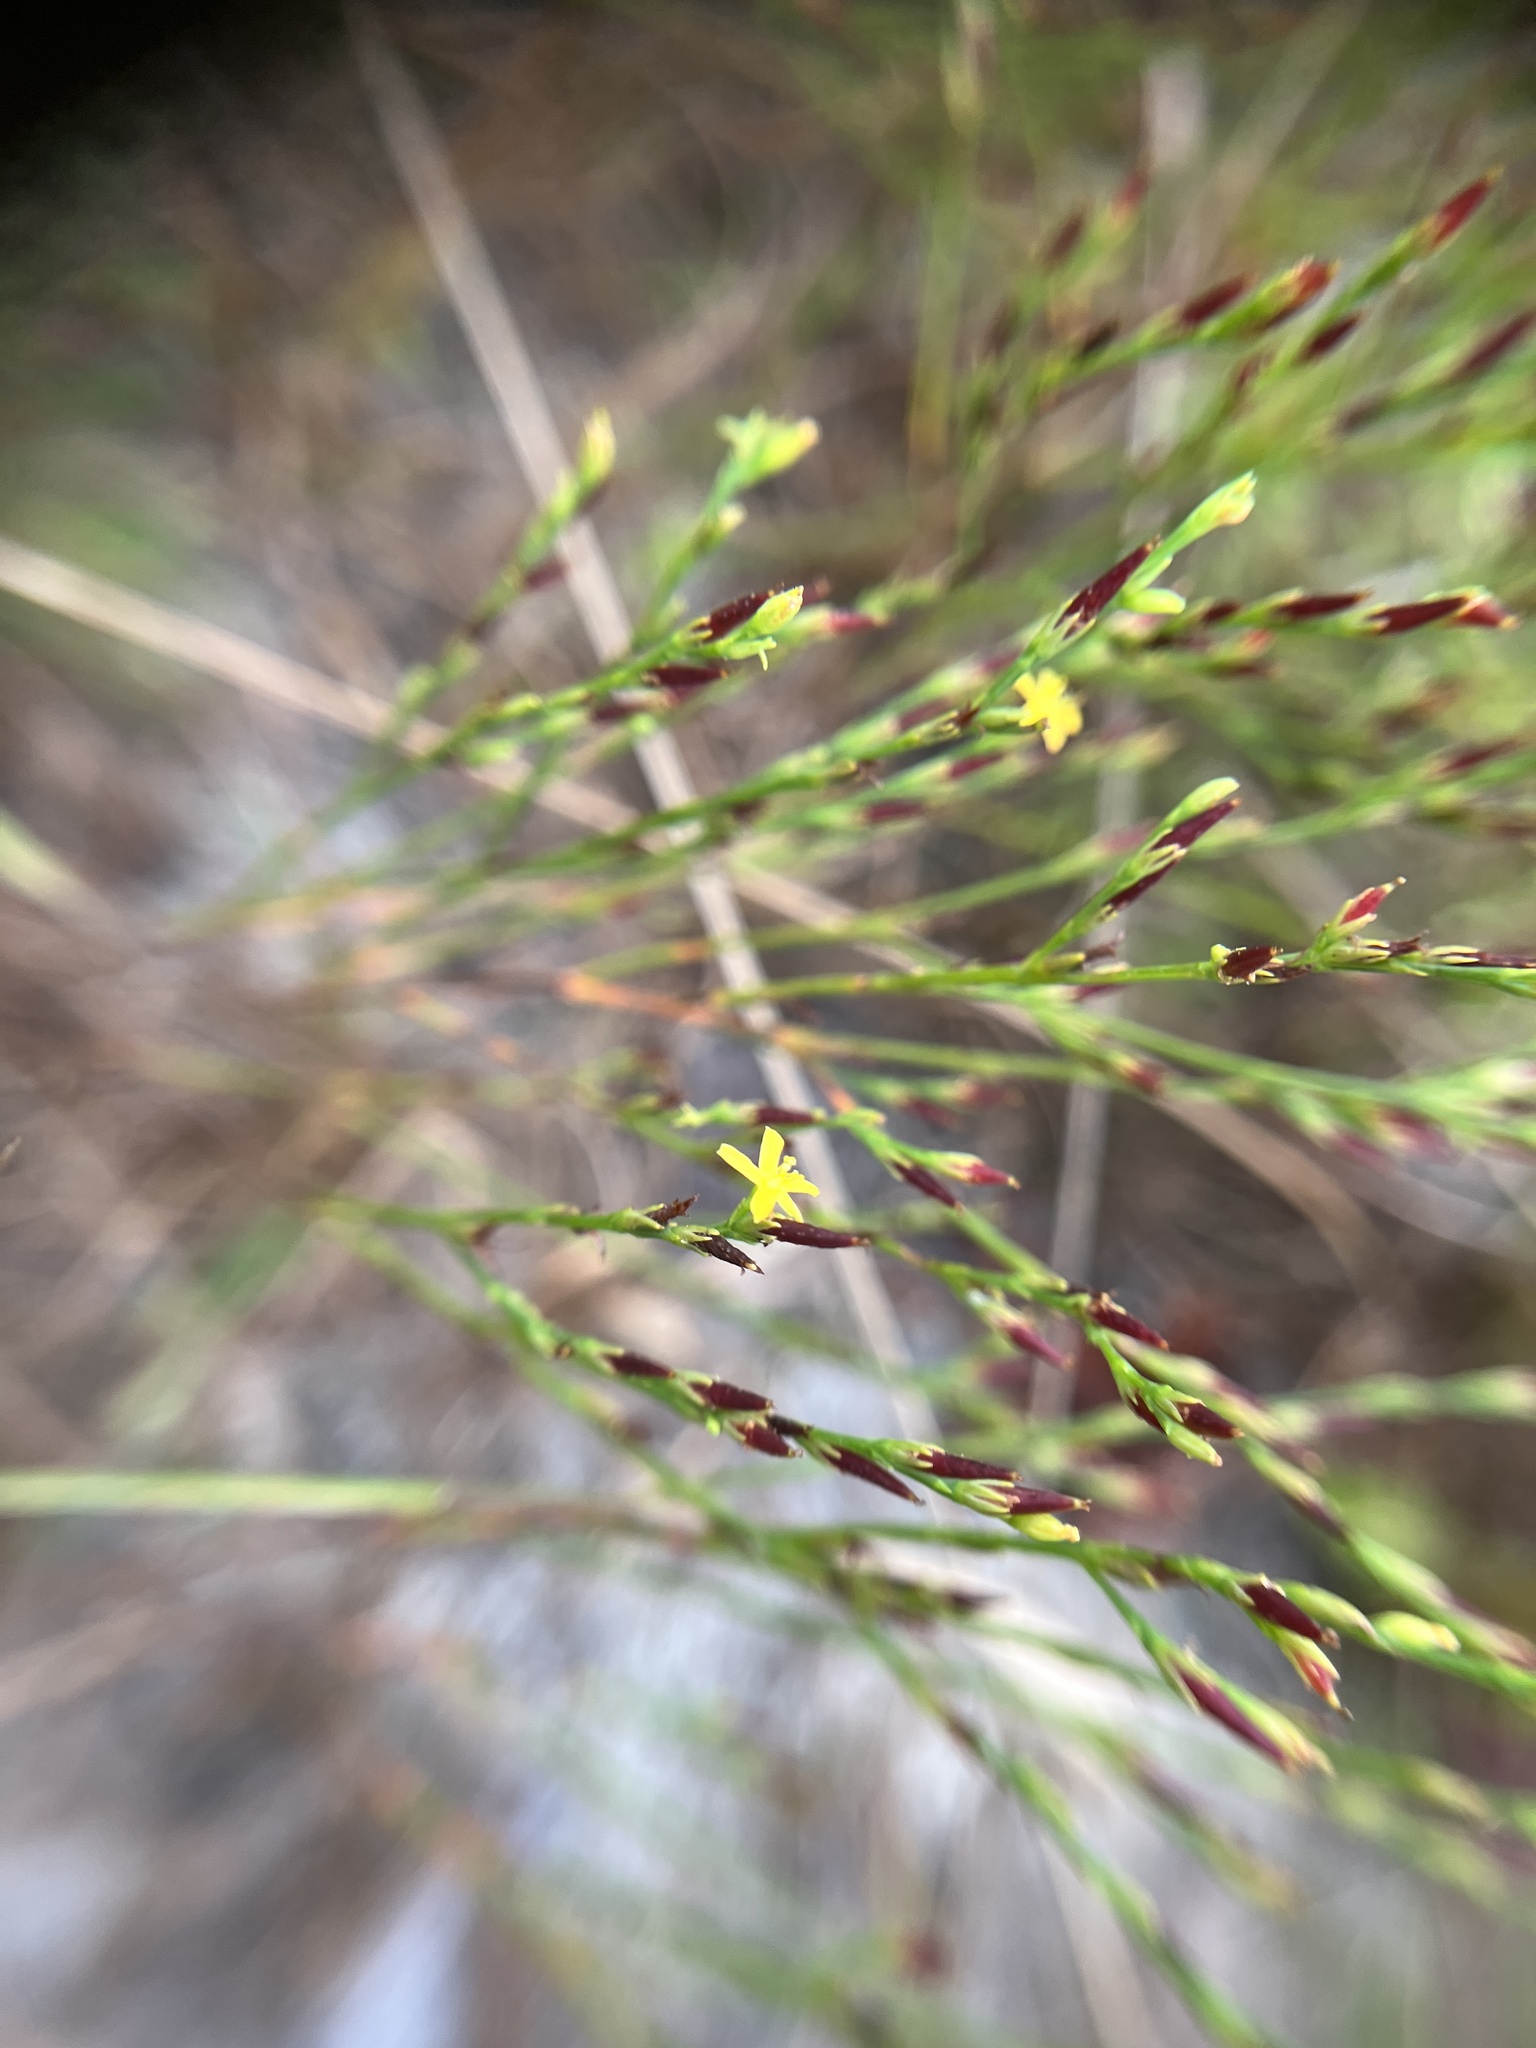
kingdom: Plantae
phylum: Tracheophyta
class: Magnoliopsida
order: Malpighiales
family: Hypericaceae
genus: Hypericum
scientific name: Hypericum gentianoides
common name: Gentian-leaved st. john's-wort
